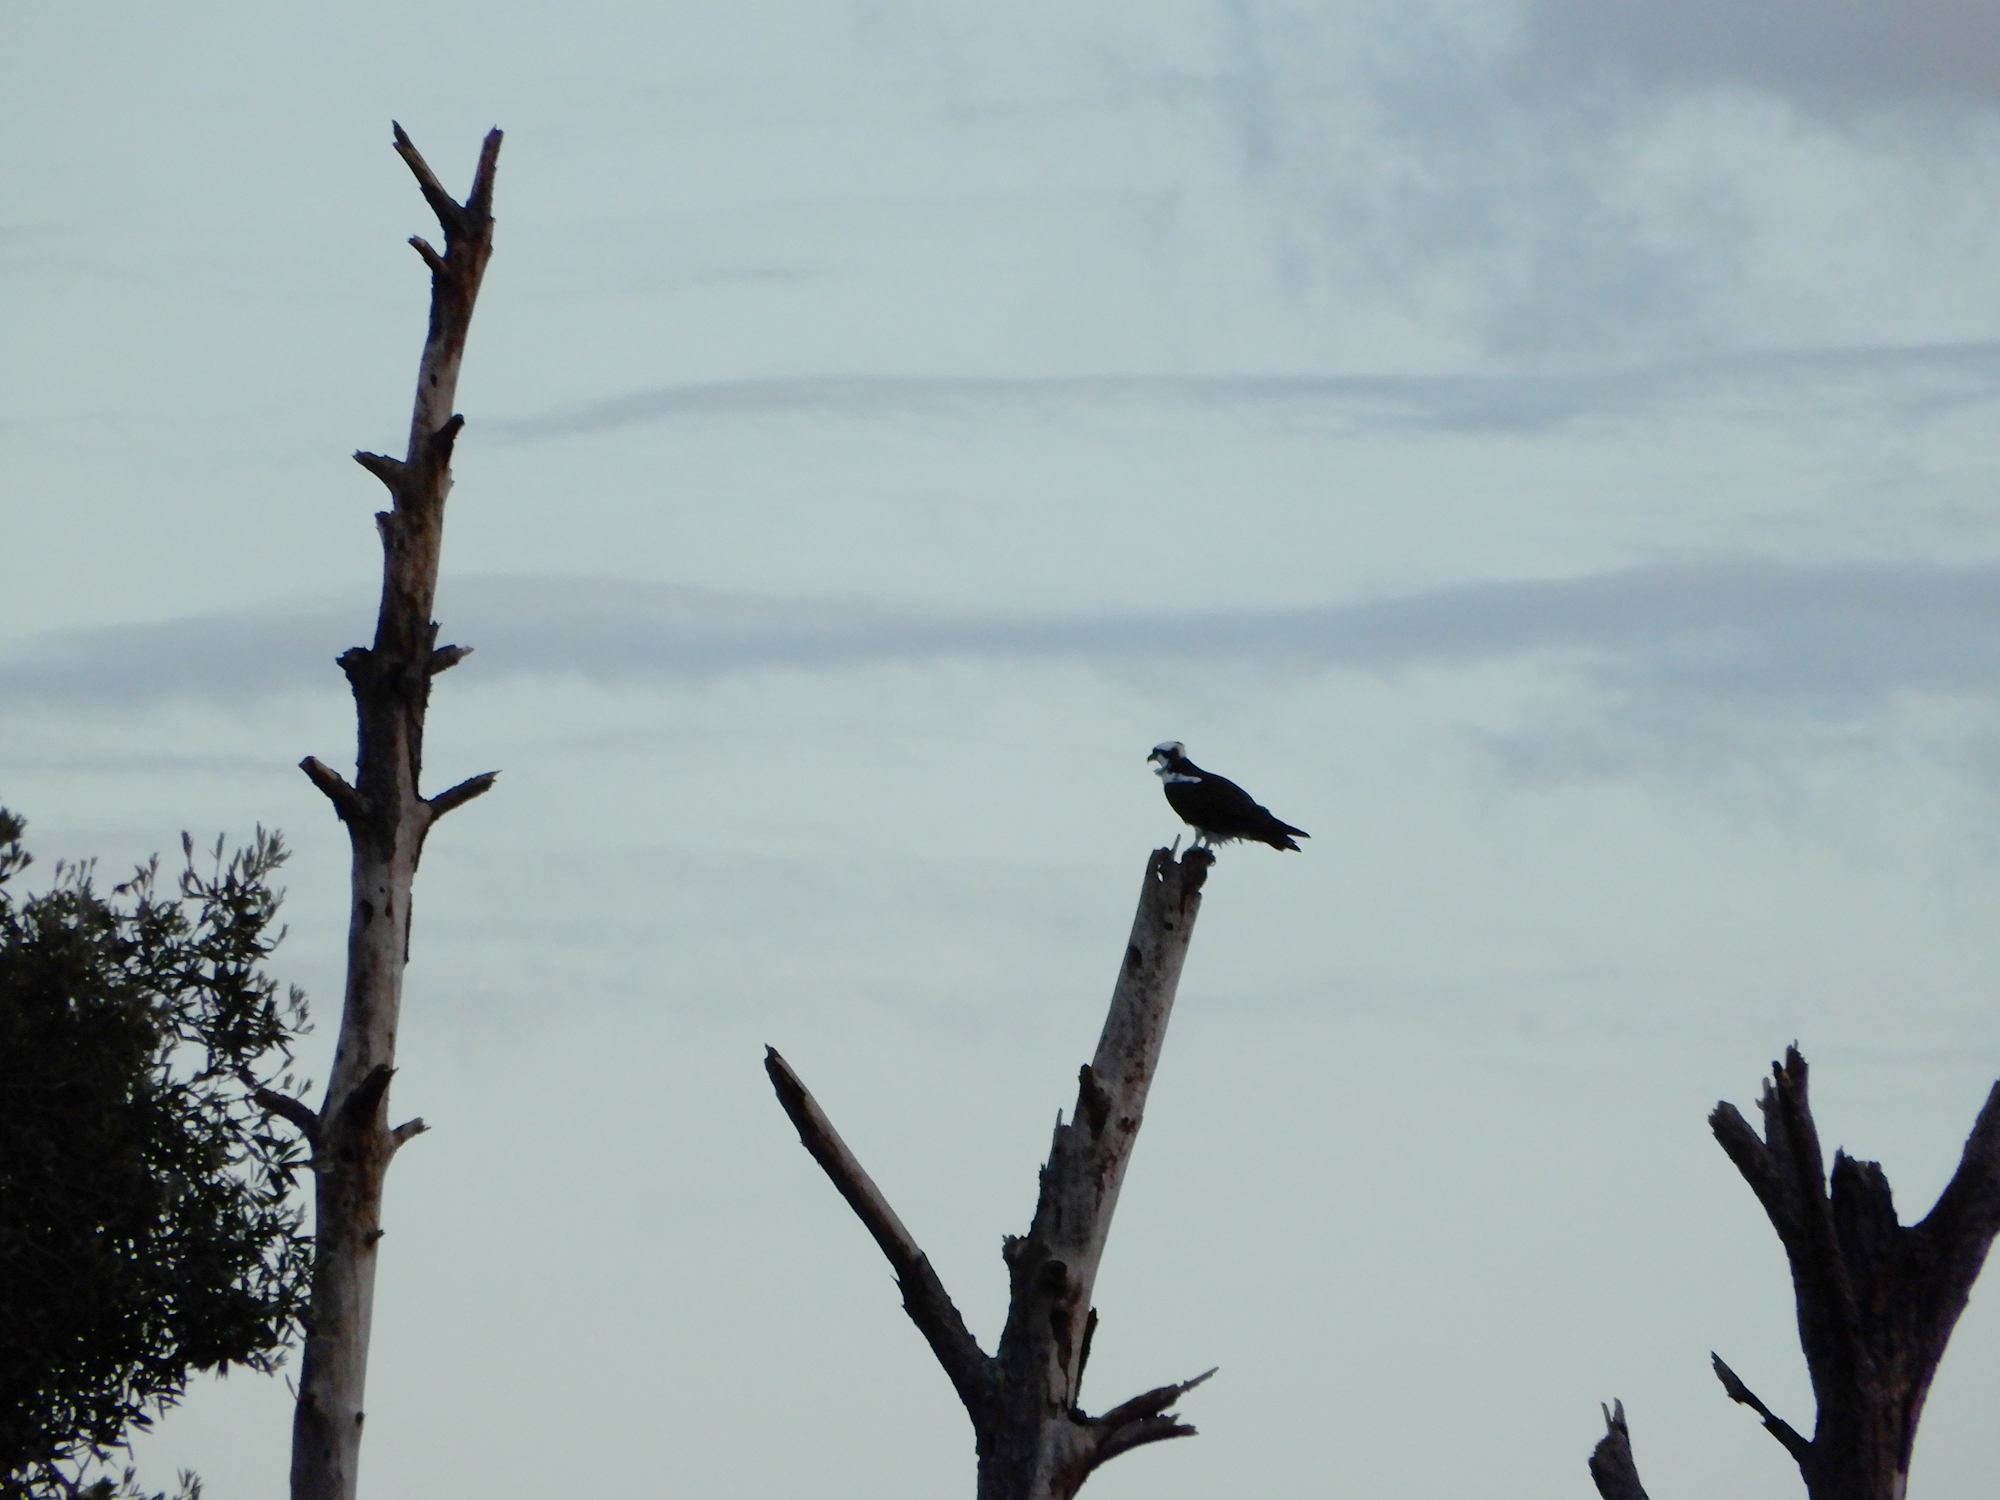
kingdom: Animalia
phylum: Chordata
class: Aves
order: Accipitriformes
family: Pandionidae
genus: Pandion
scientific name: Pandion haliaetus
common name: Osprey
